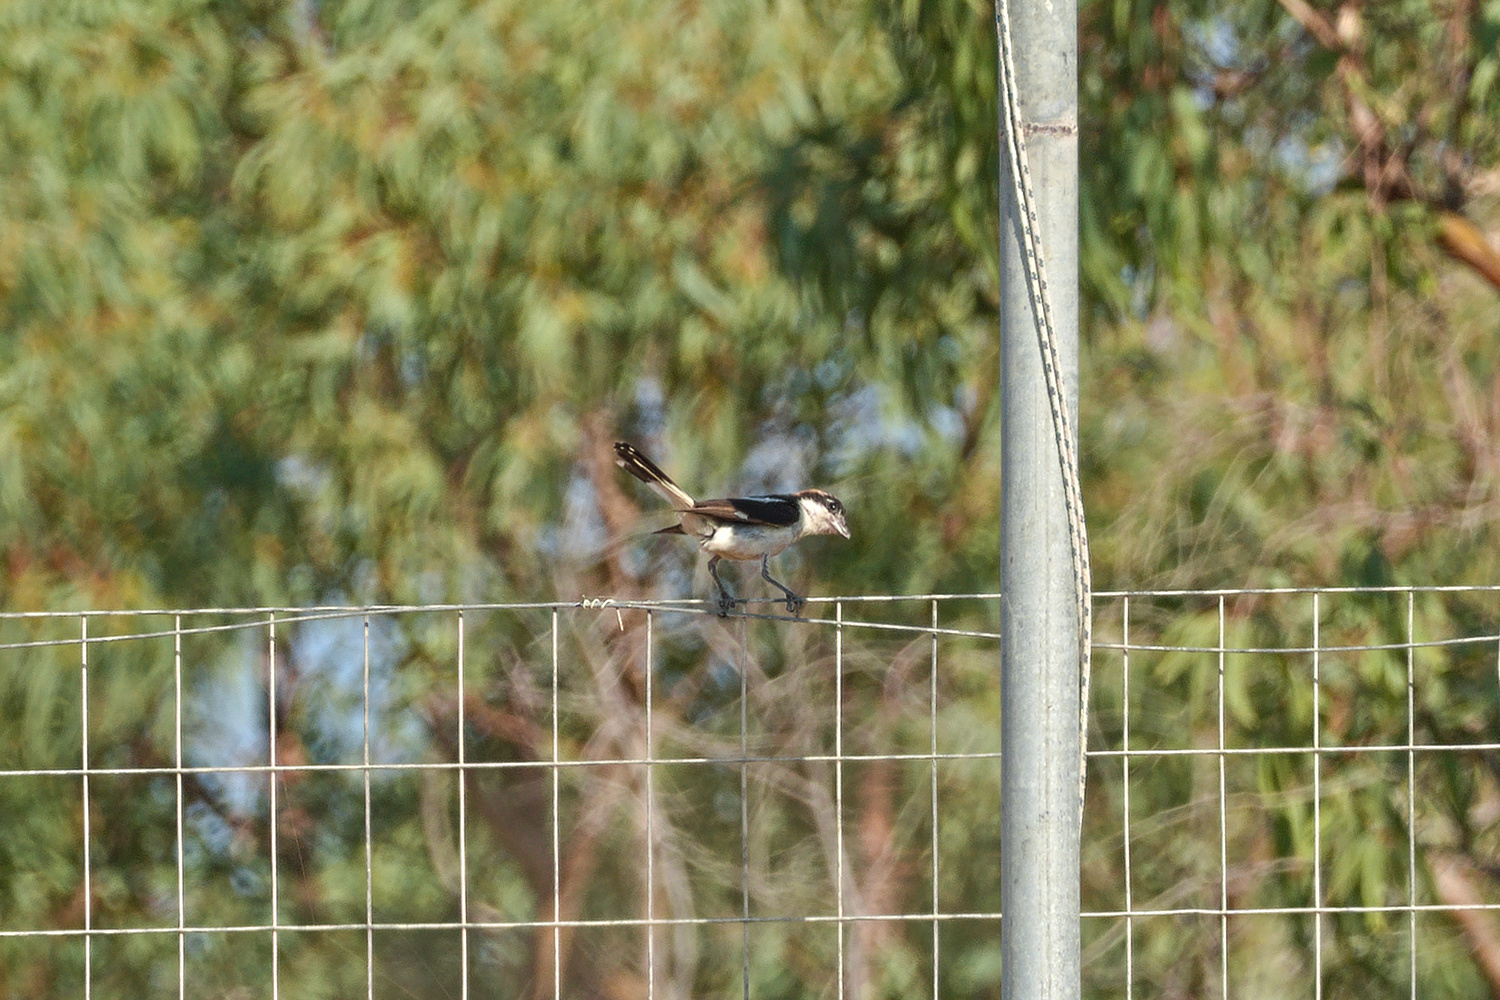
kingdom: Animalia
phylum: Chordata
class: Aves
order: Passeriformes
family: Laniidae
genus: Lanius
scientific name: Lanius senator
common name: Woodchat shrike
